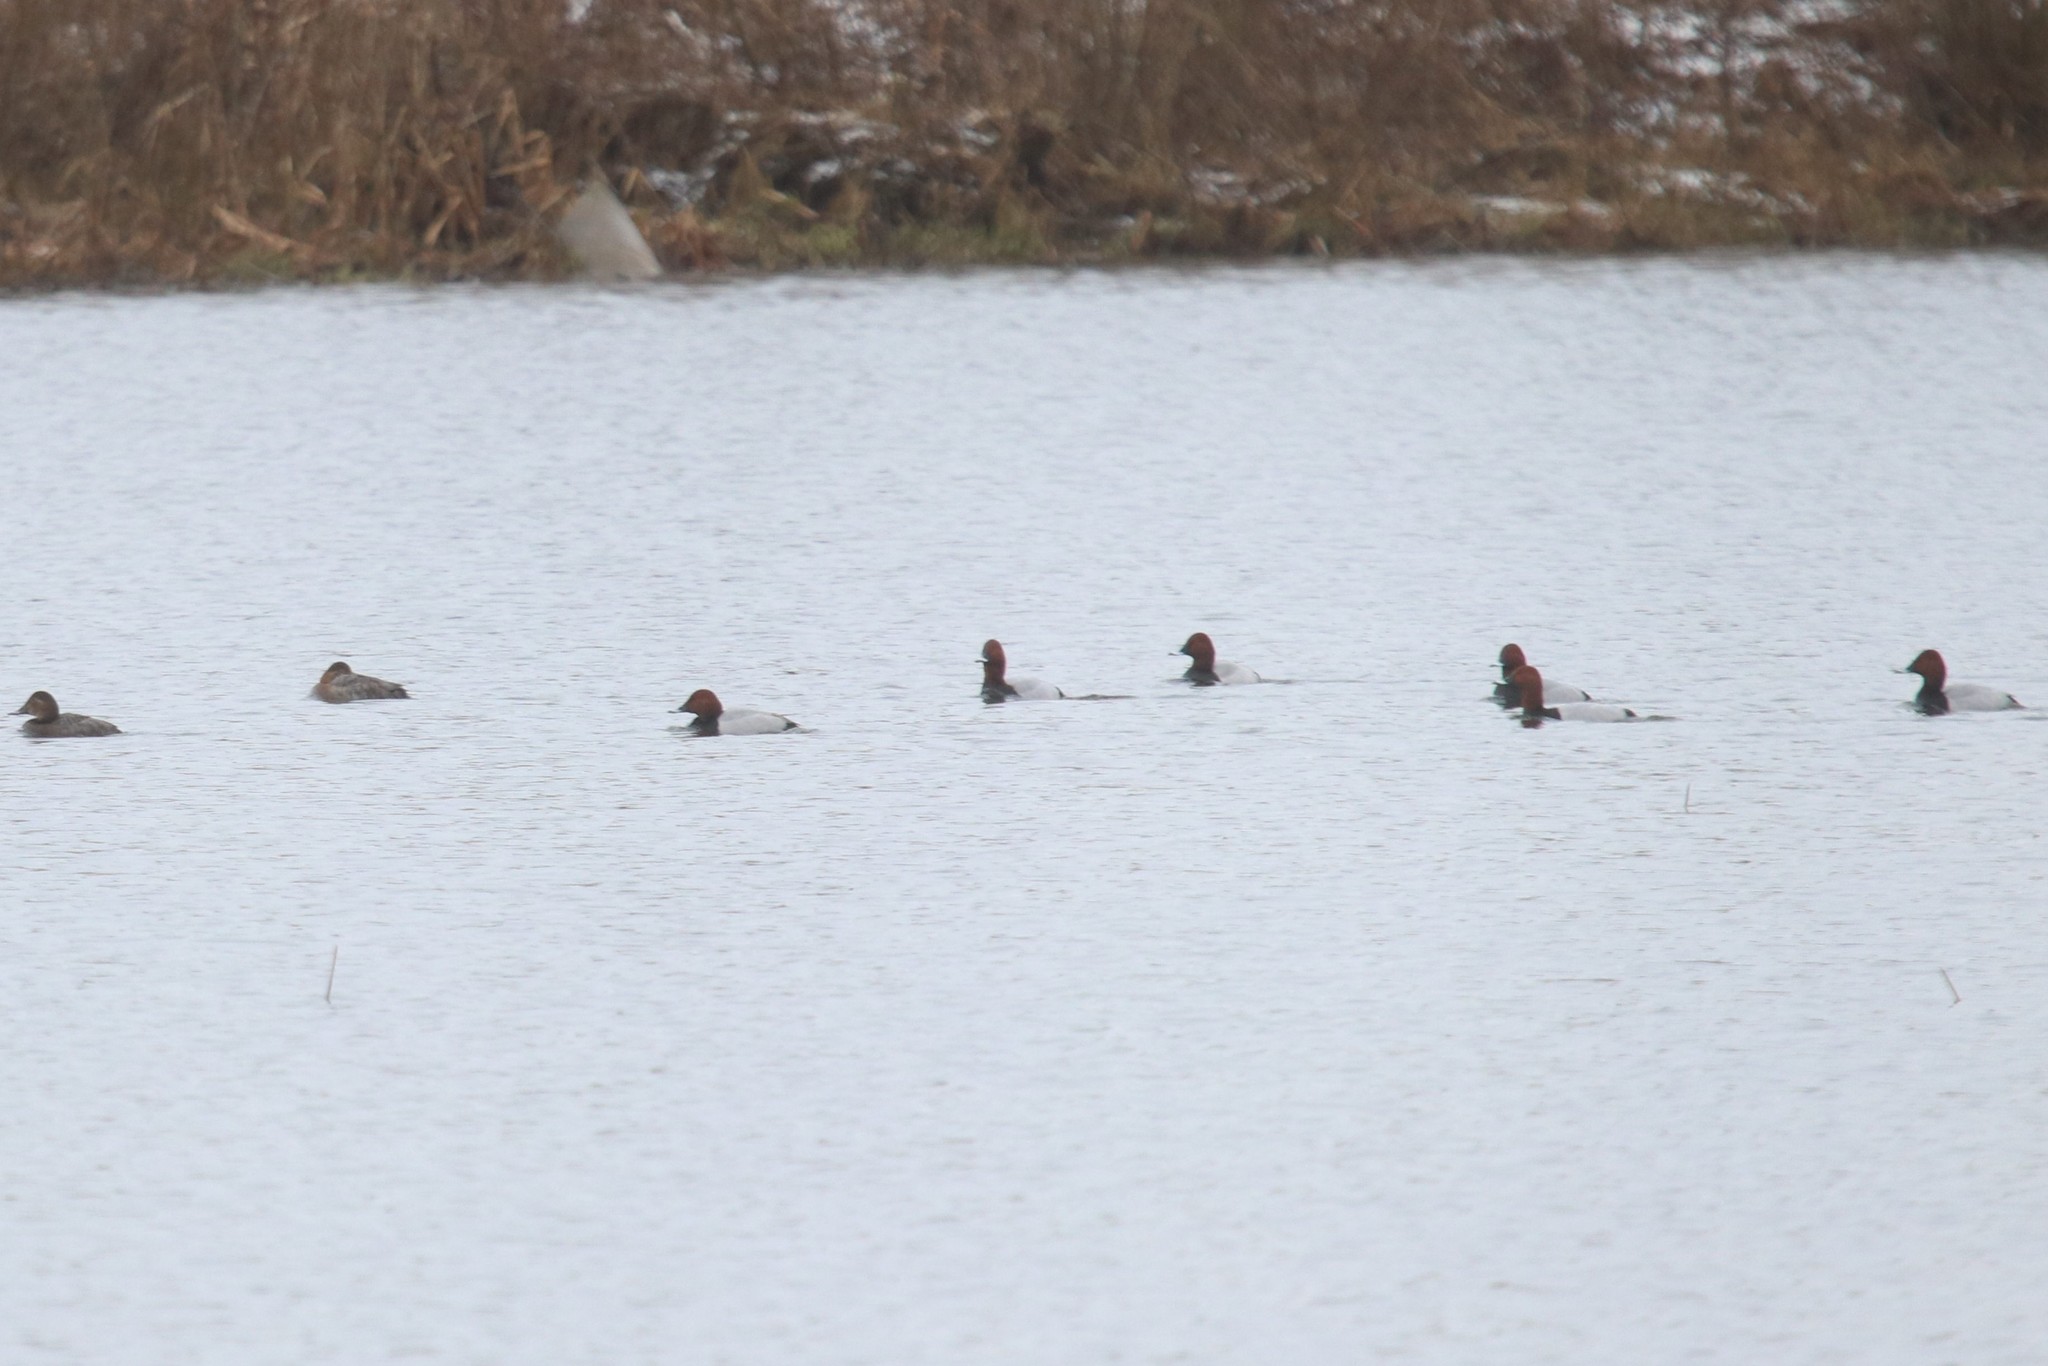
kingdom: Animalia
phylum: Chordata
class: Aves
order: Anseriformes
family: Anatidae
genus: Aythya
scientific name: Aythya ferina
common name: Common pochard
